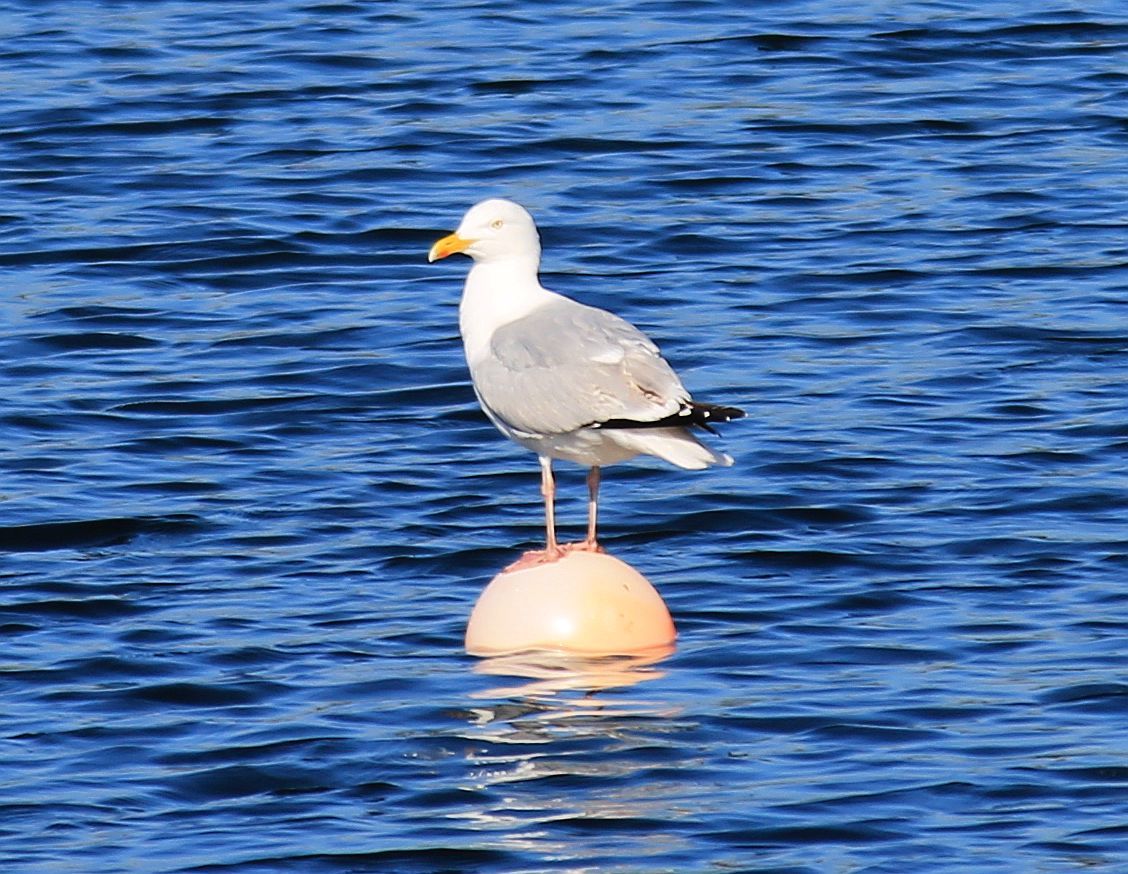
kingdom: Animalia
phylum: Chordata
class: Aves
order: Charadriiformes
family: Laridae
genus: Larus
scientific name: Larus argentatus
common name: Herring gull
